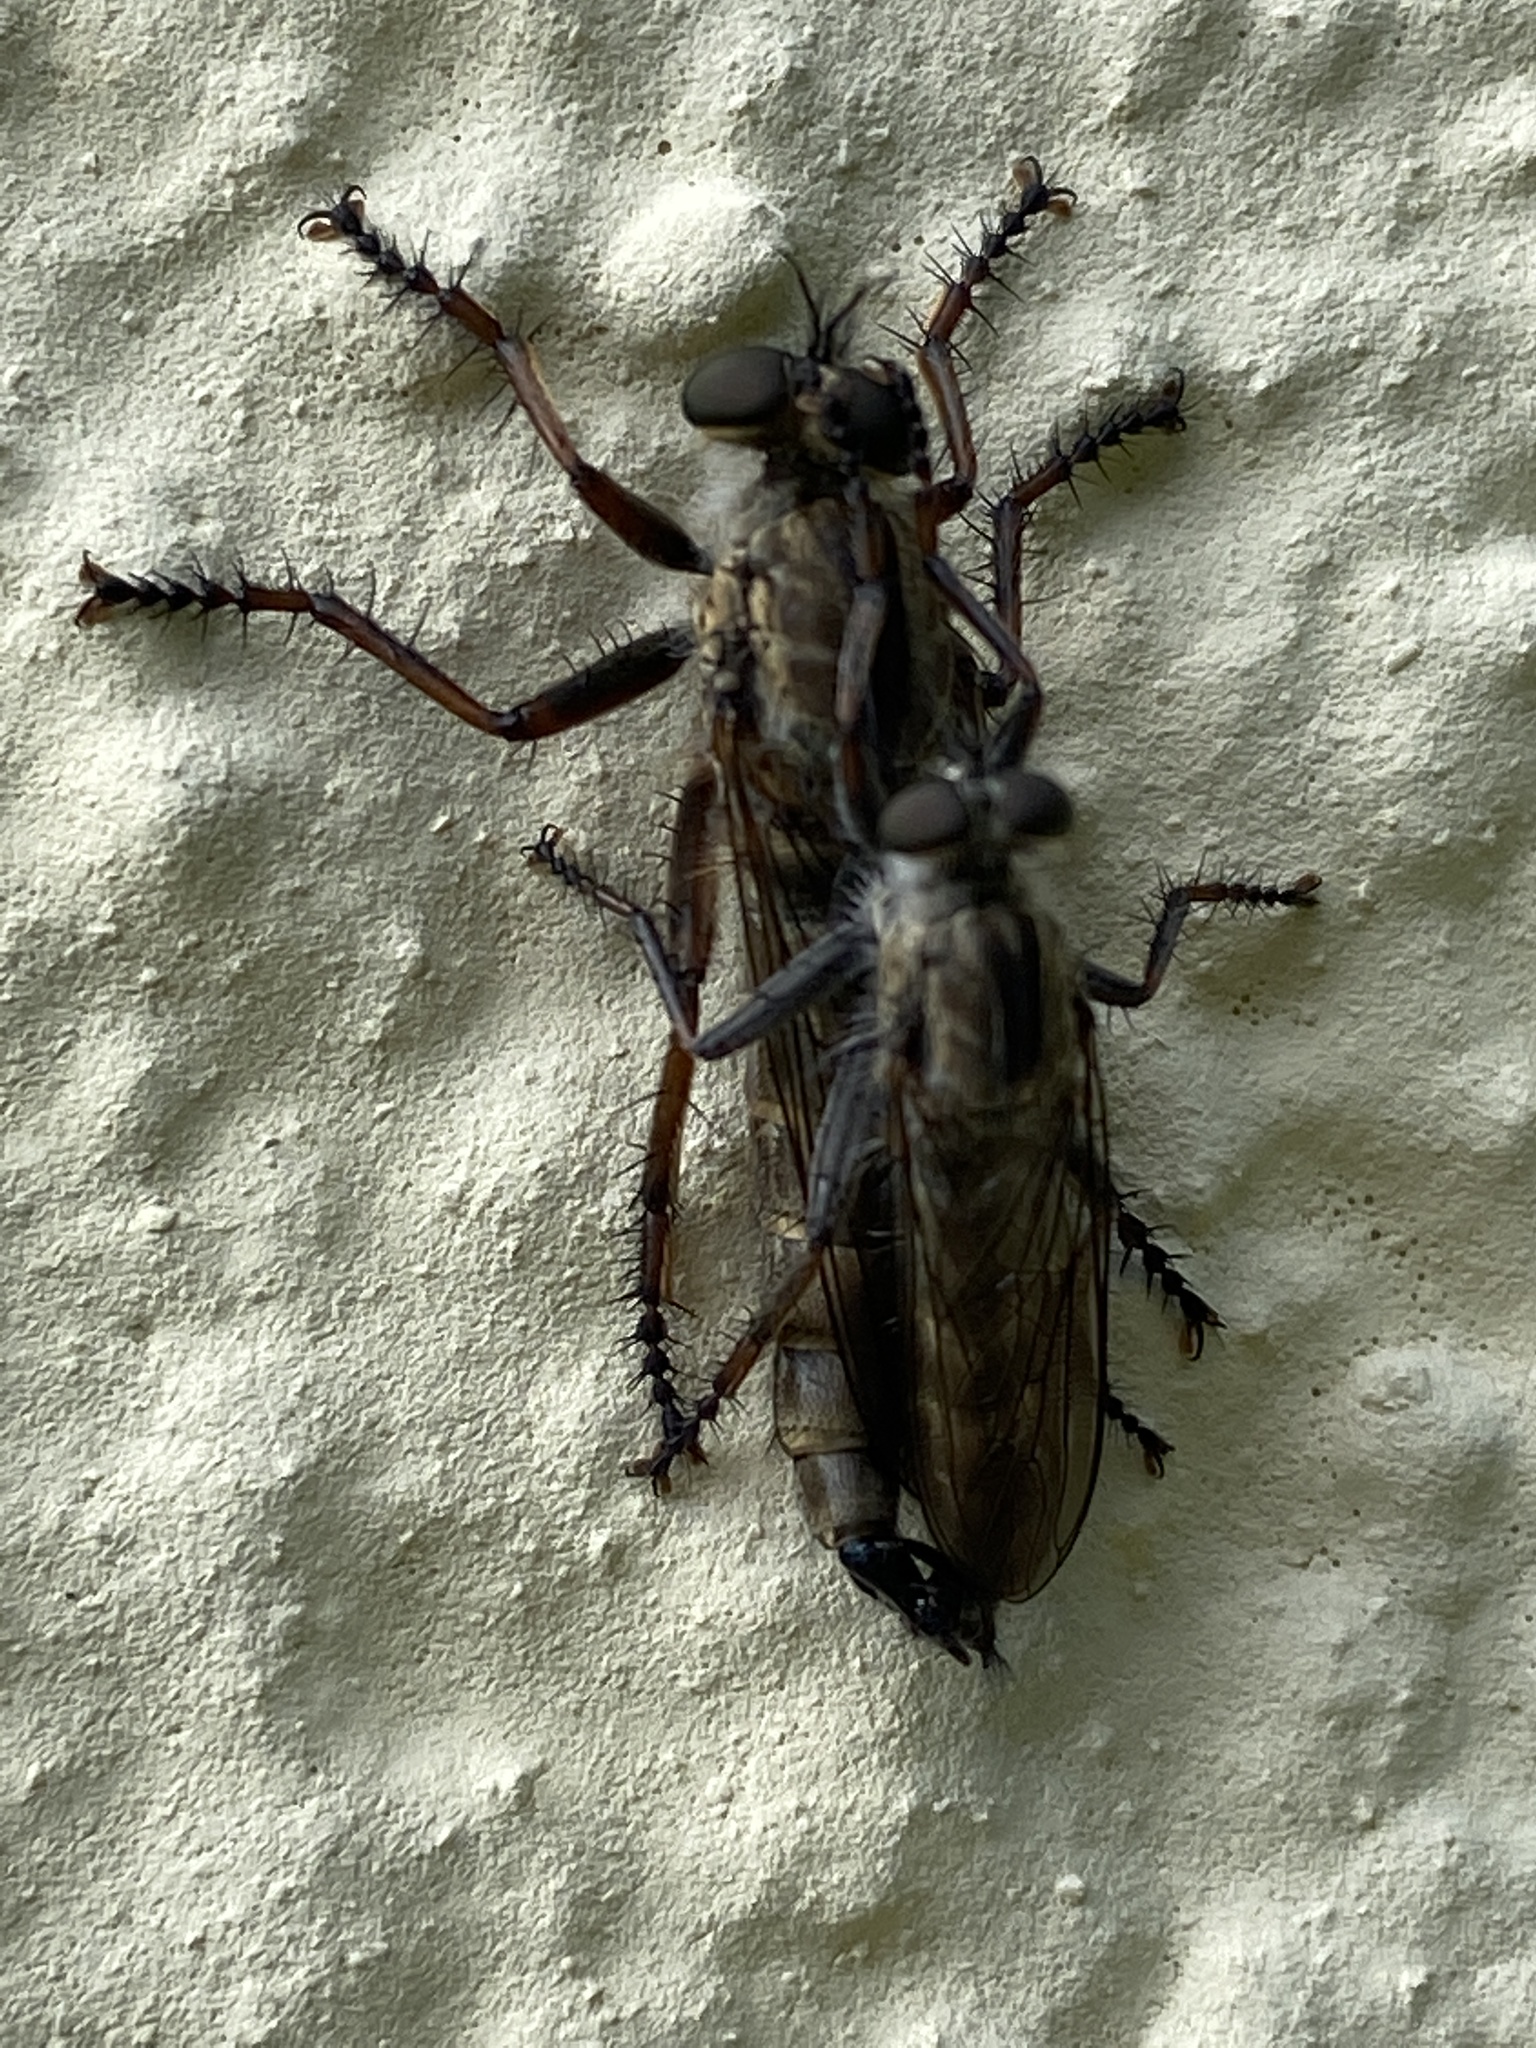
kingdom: Animalia
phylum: Arthropoda
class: Insecta
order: Diptera
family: Asilidae
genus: Machimus
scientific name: Machimus atricapillus
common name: Kite-tailed robberfly
